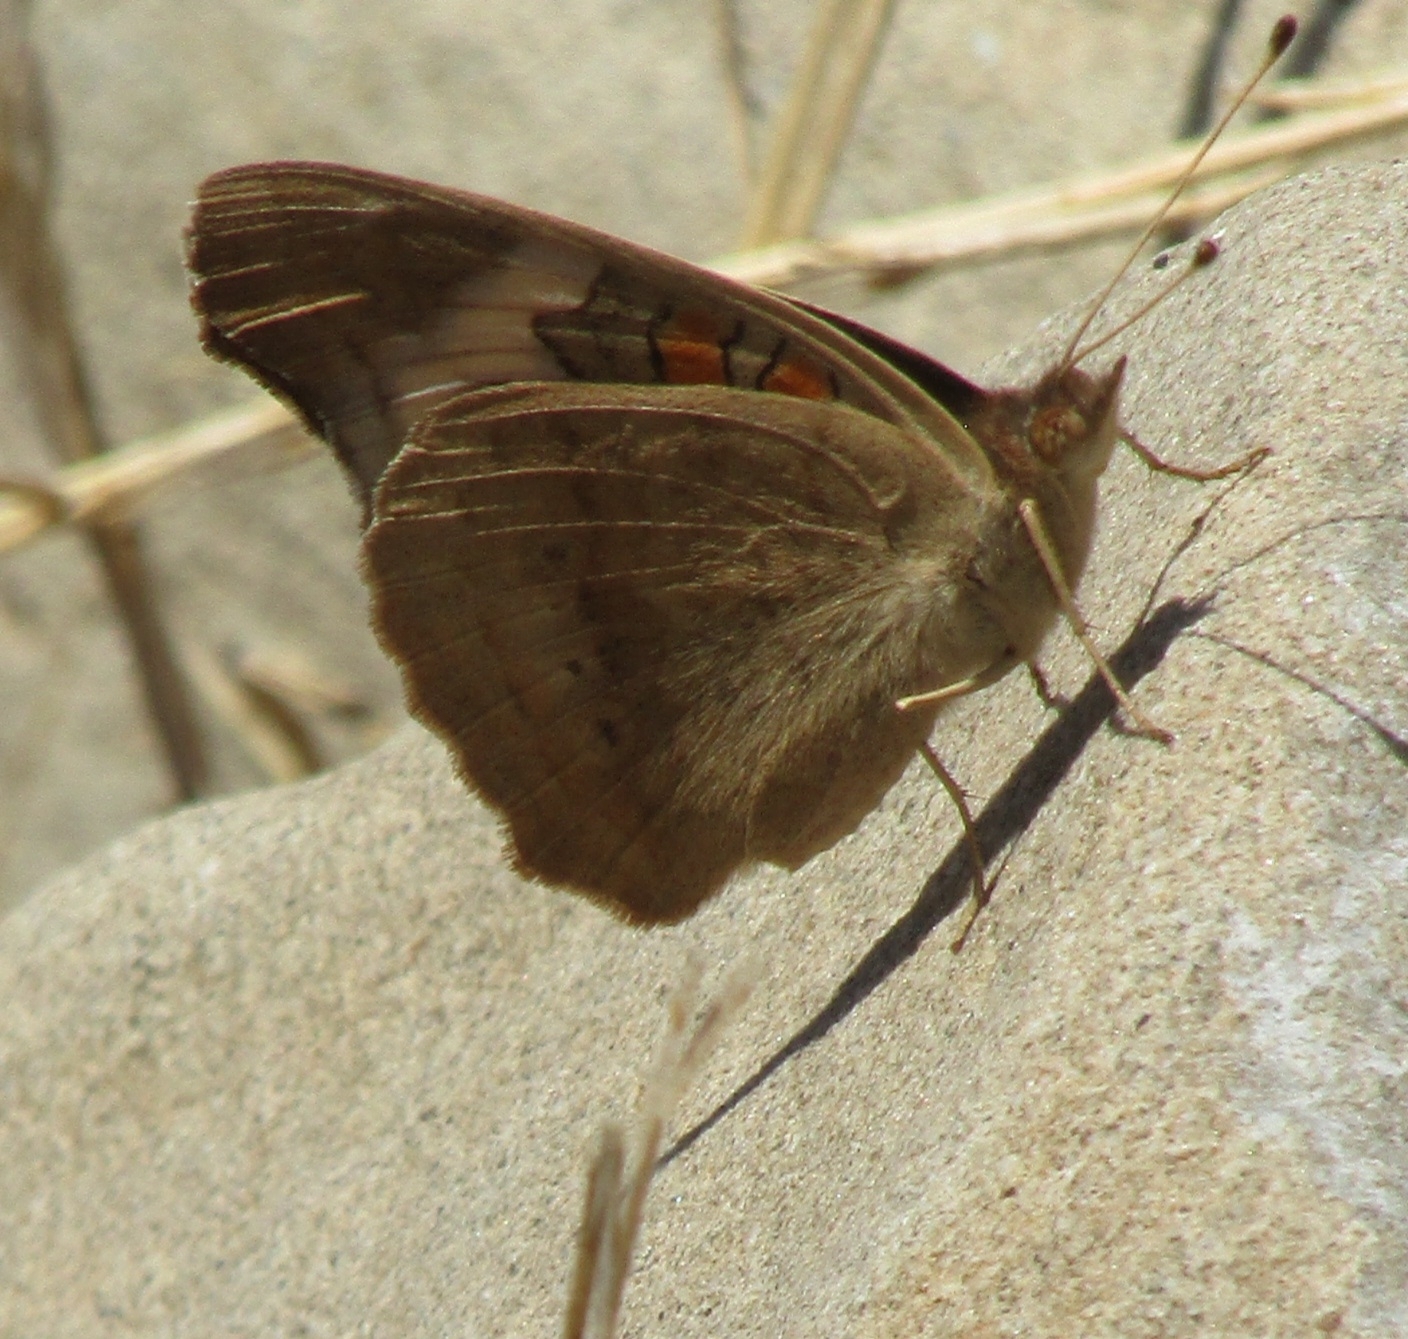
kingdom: Animalia
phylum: Arthropoda
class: Insecta
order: Lepidoptera
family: Nymphalidae
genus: Junonia
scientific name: Junonia grisea
